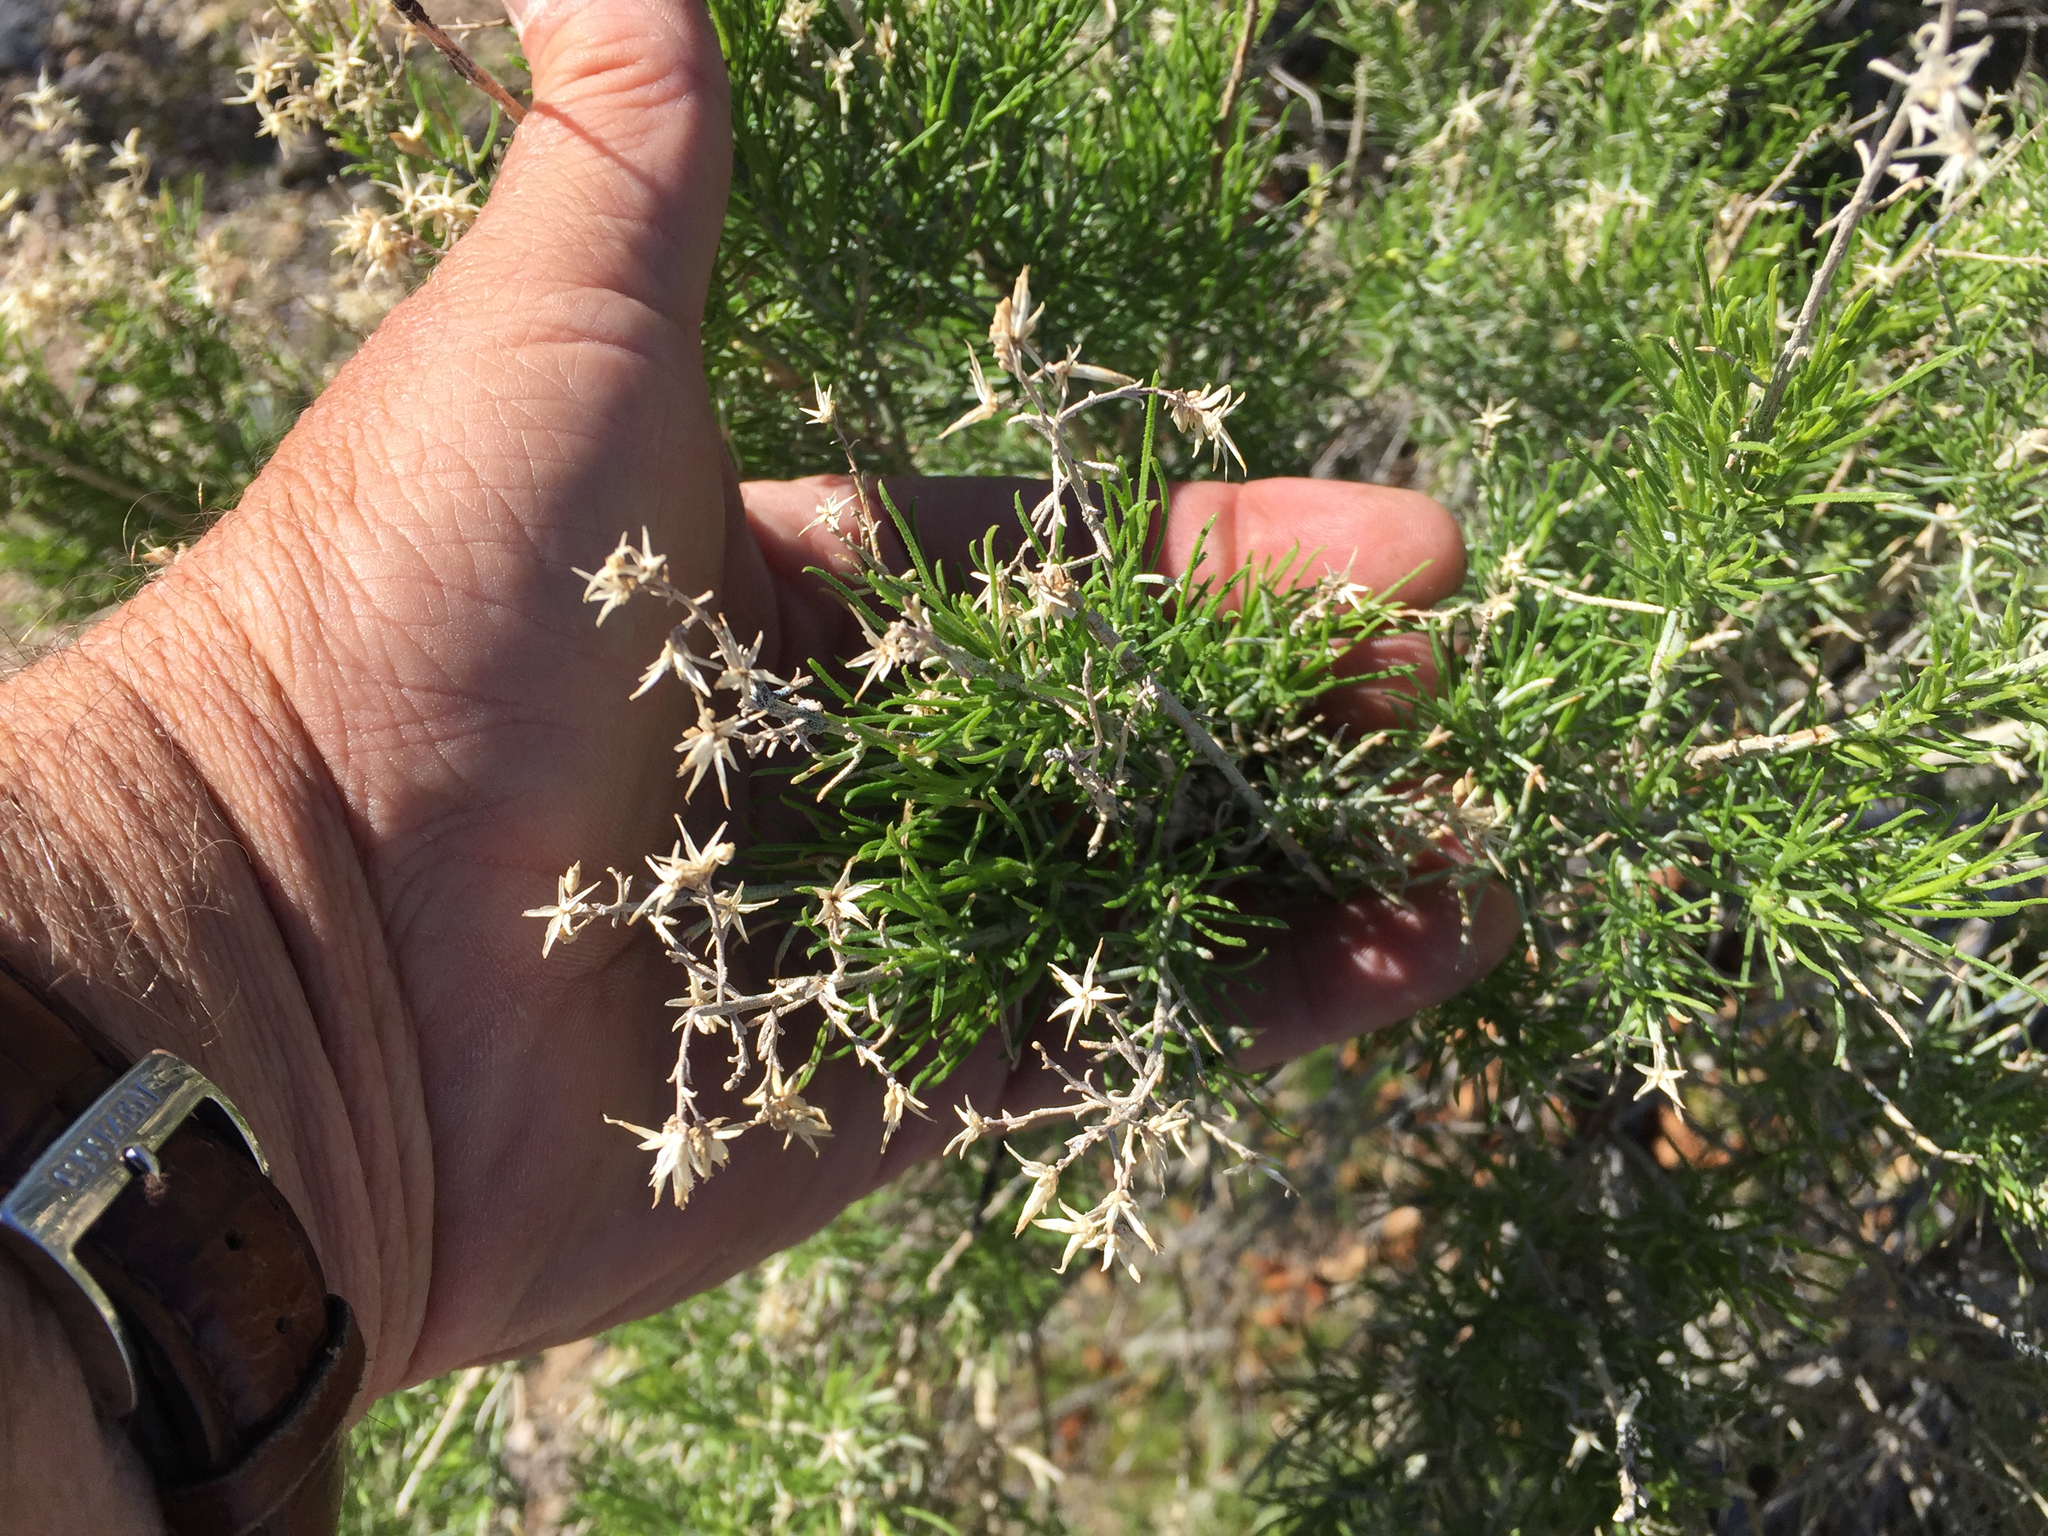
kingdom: Plantae
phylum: Tracheophyta
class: Magnoliopsida
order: Asterales
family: Asteraceae
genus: Ericameria
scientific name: Ericameria laricifolia
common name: Turpentine-bush
